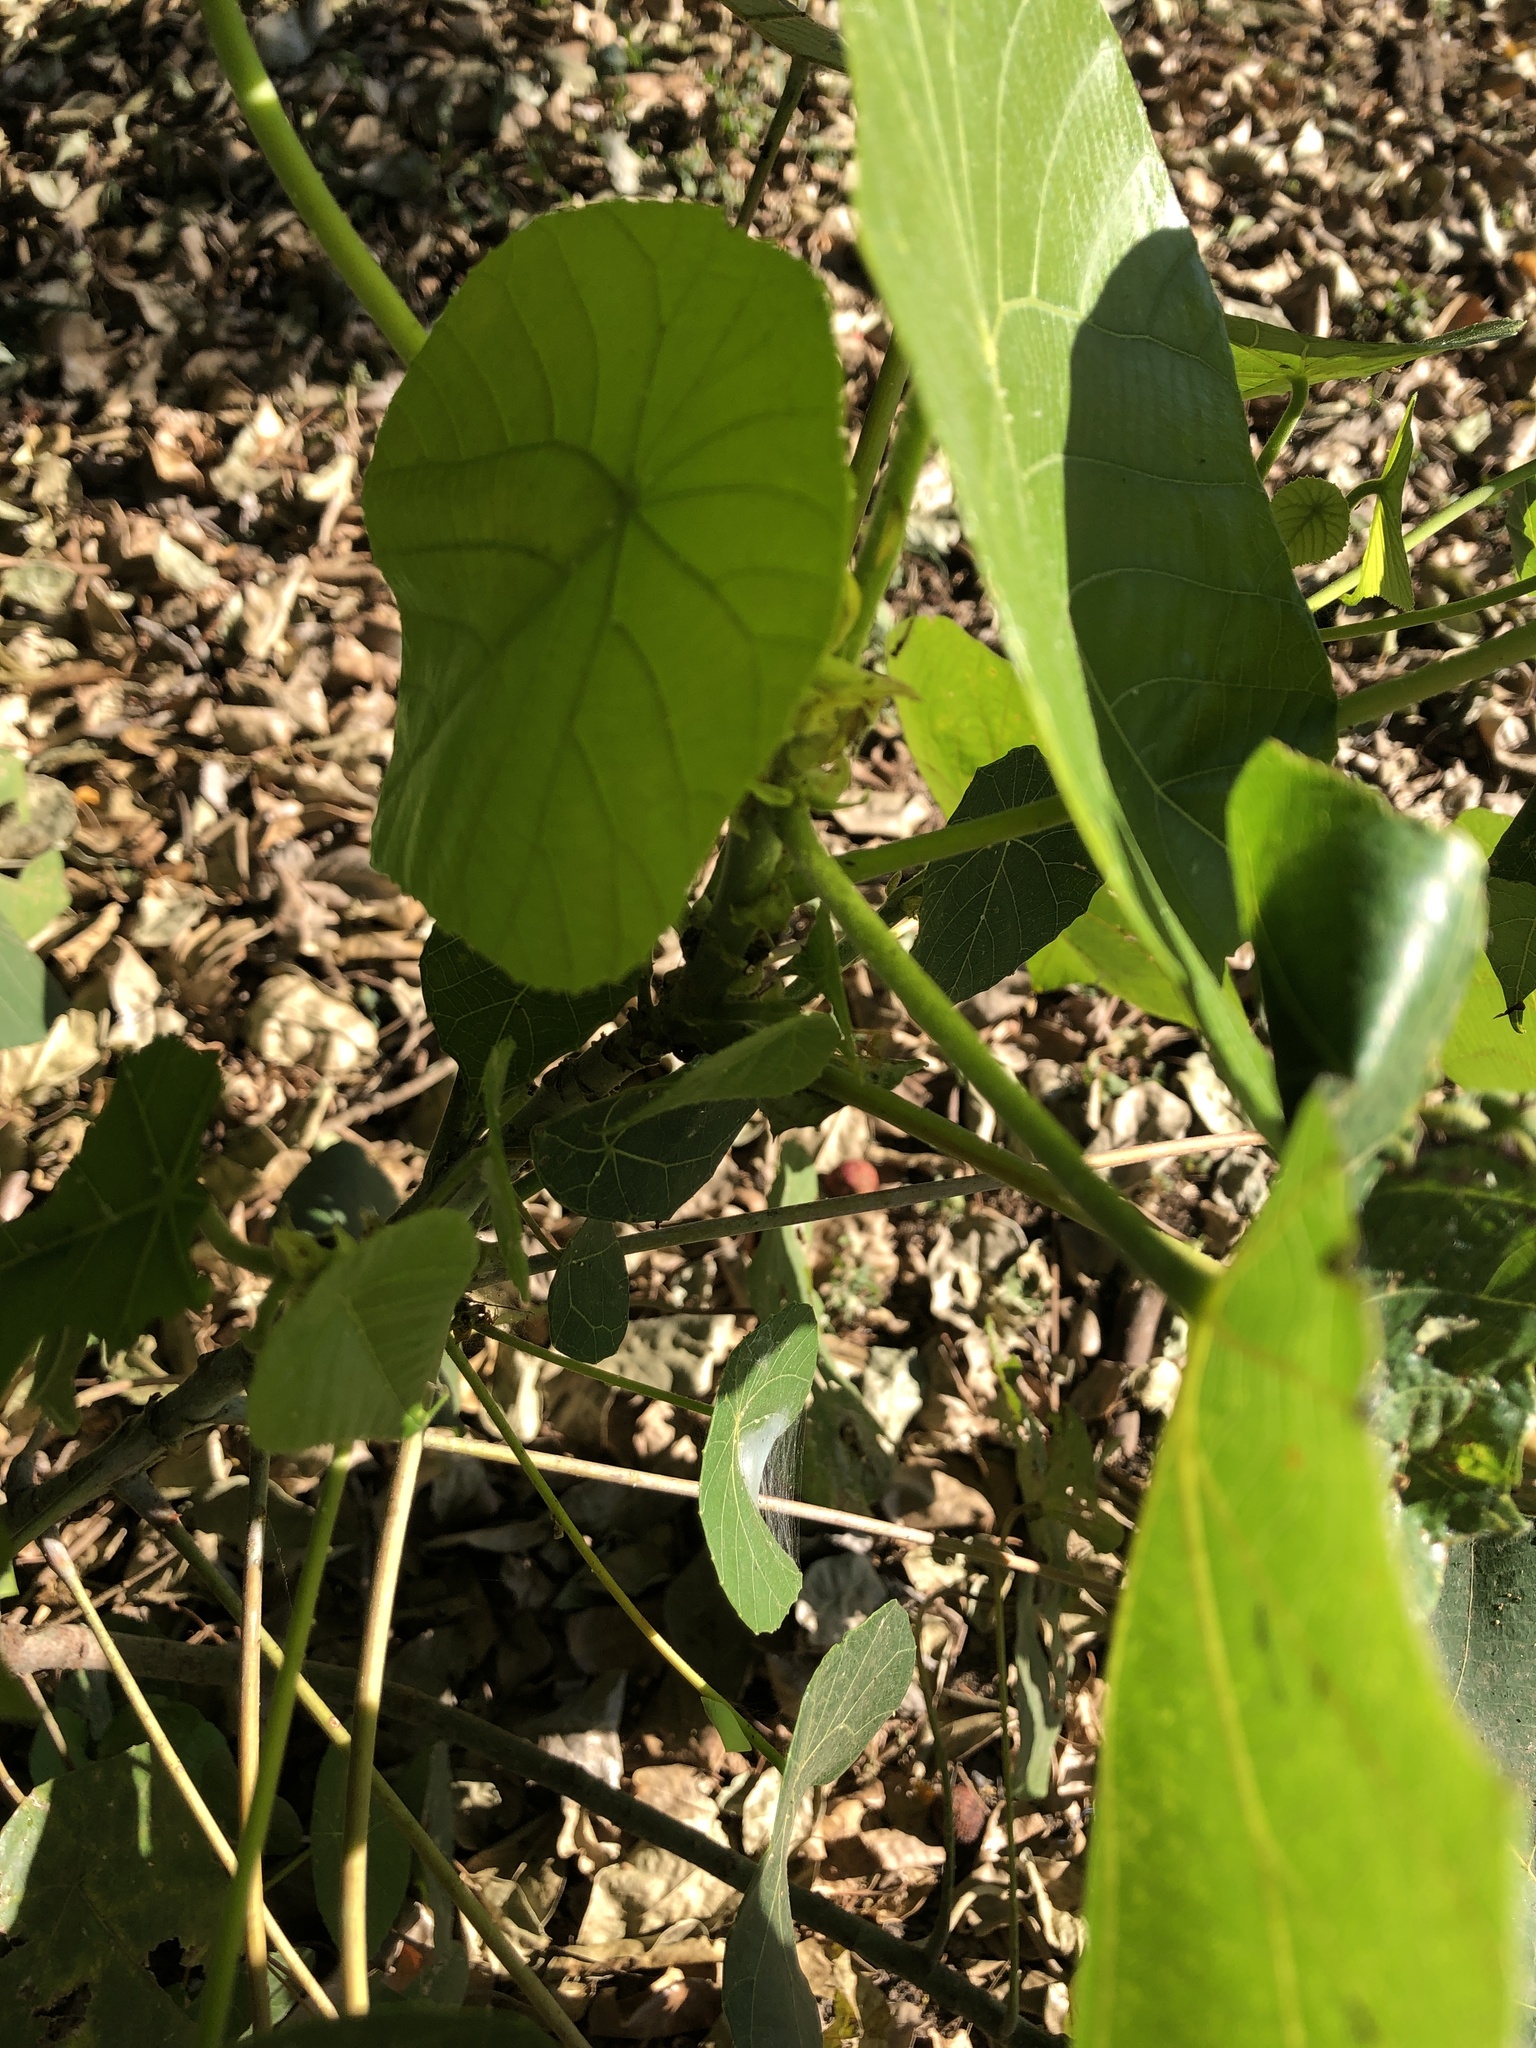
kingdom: Plantae
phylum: Tracheophyta
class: Magnoliopsida
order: Malpighiales
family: Euphorbiaceae
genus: Macaranga
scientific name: Macaranga tanarius
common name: Parasol leaf tree
